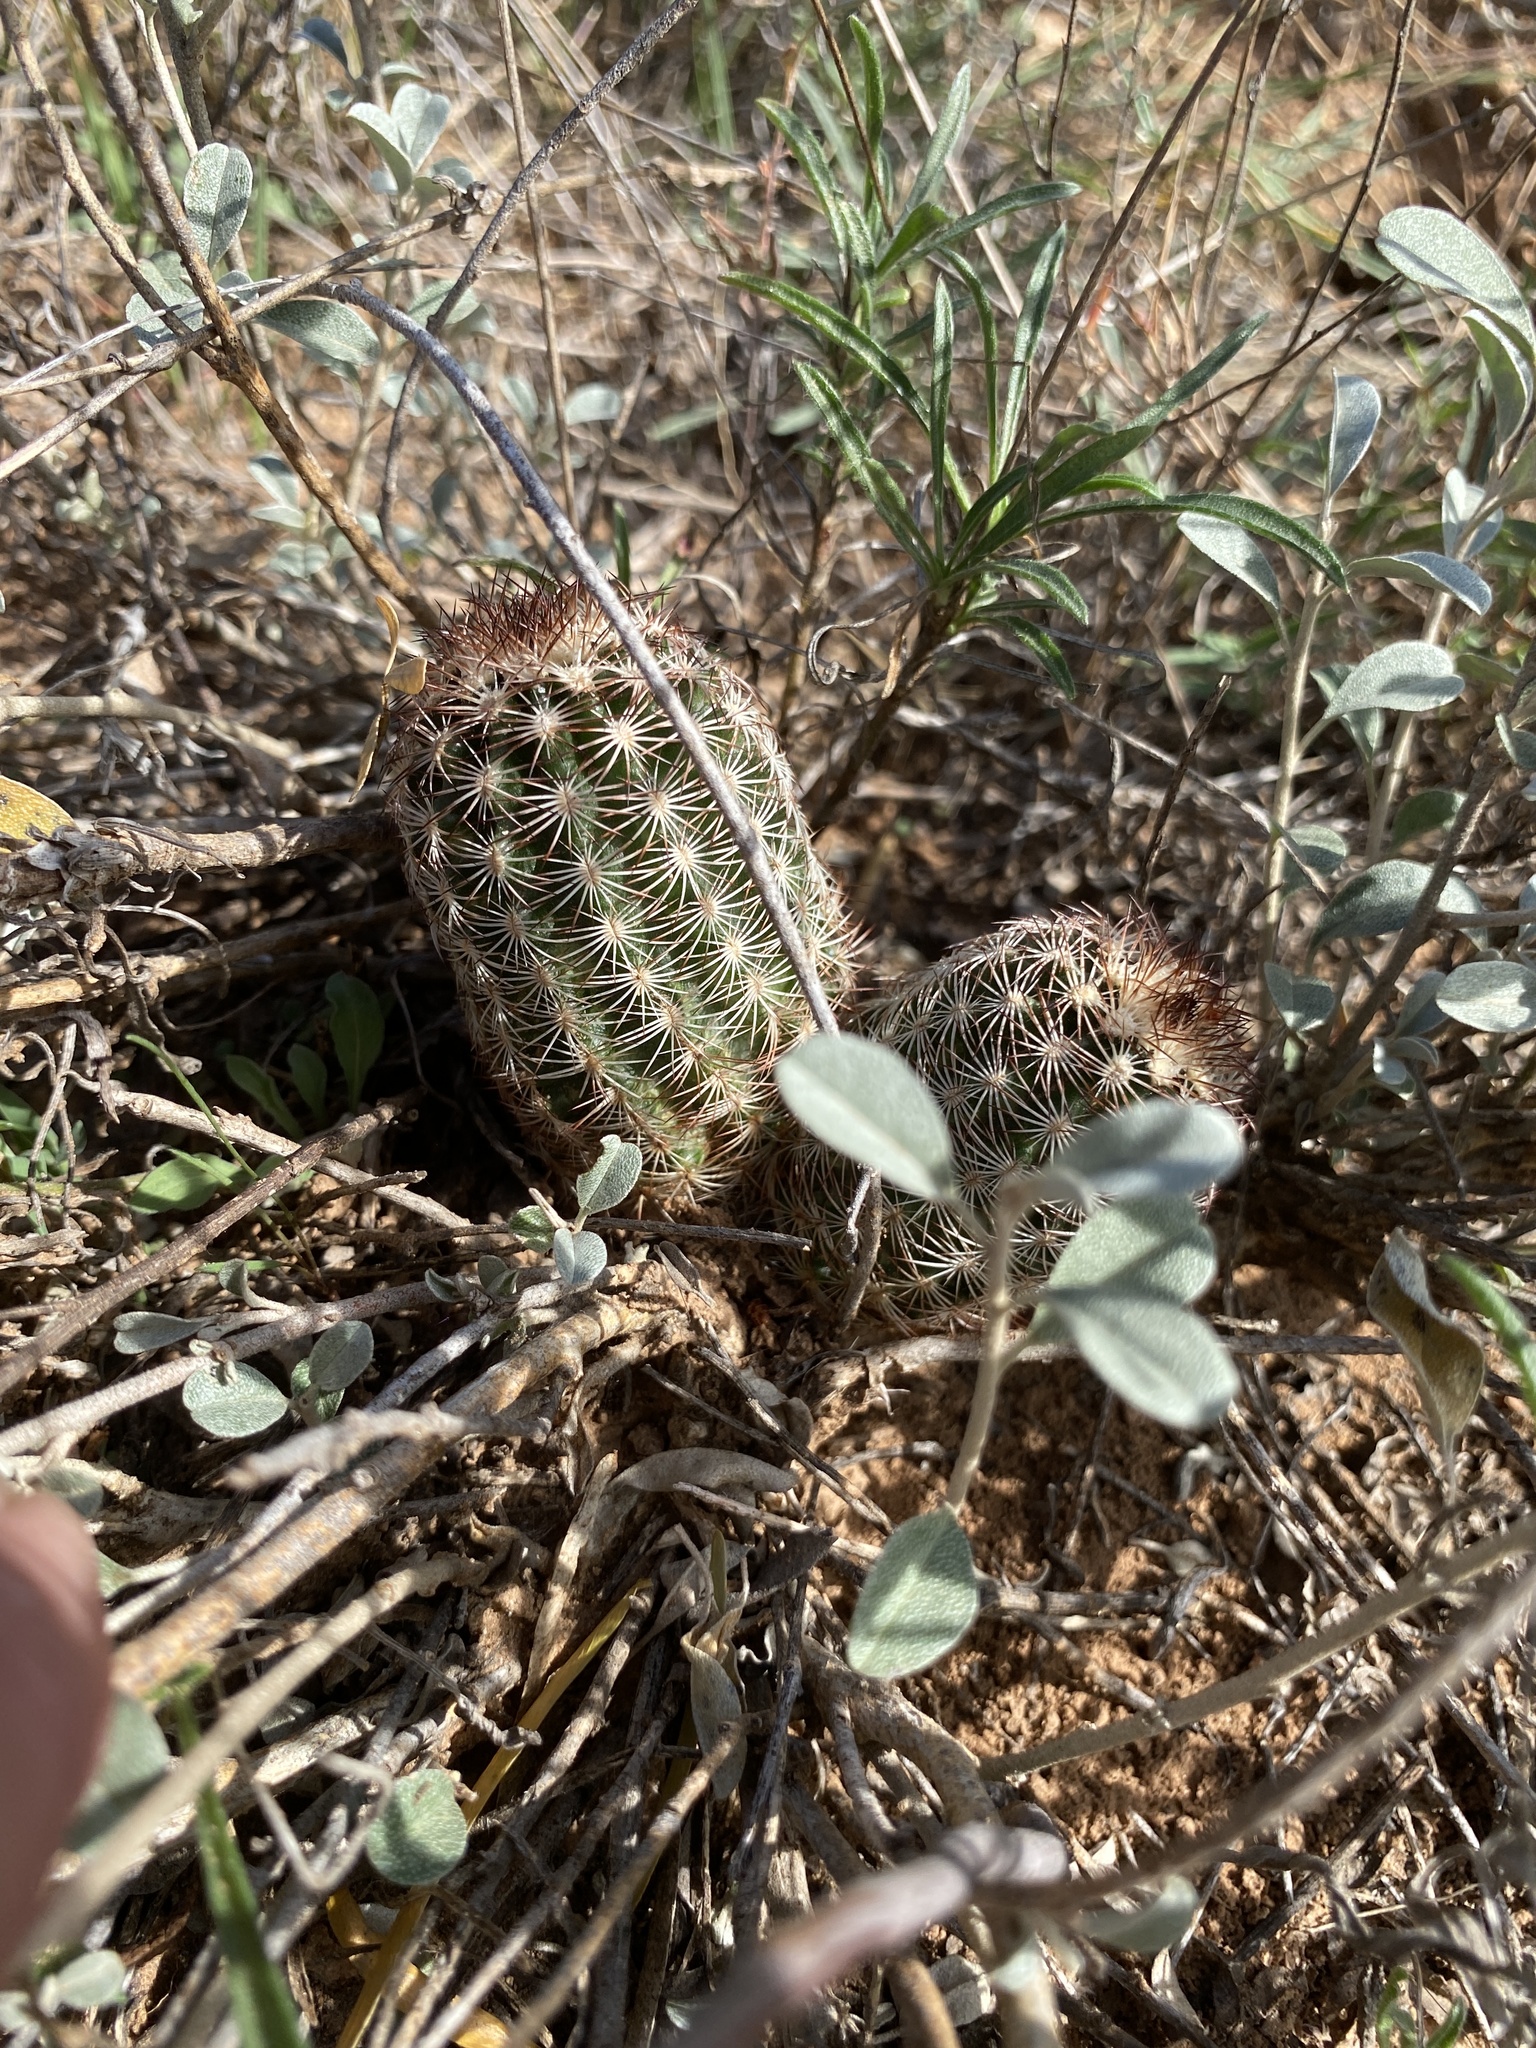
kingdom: Plantae
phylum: Tracheophyta
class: Magnoliopsida
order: Caryophyllales
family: Cactaceae
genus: Echinocereus
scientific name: Echinocereus reichenbachii
